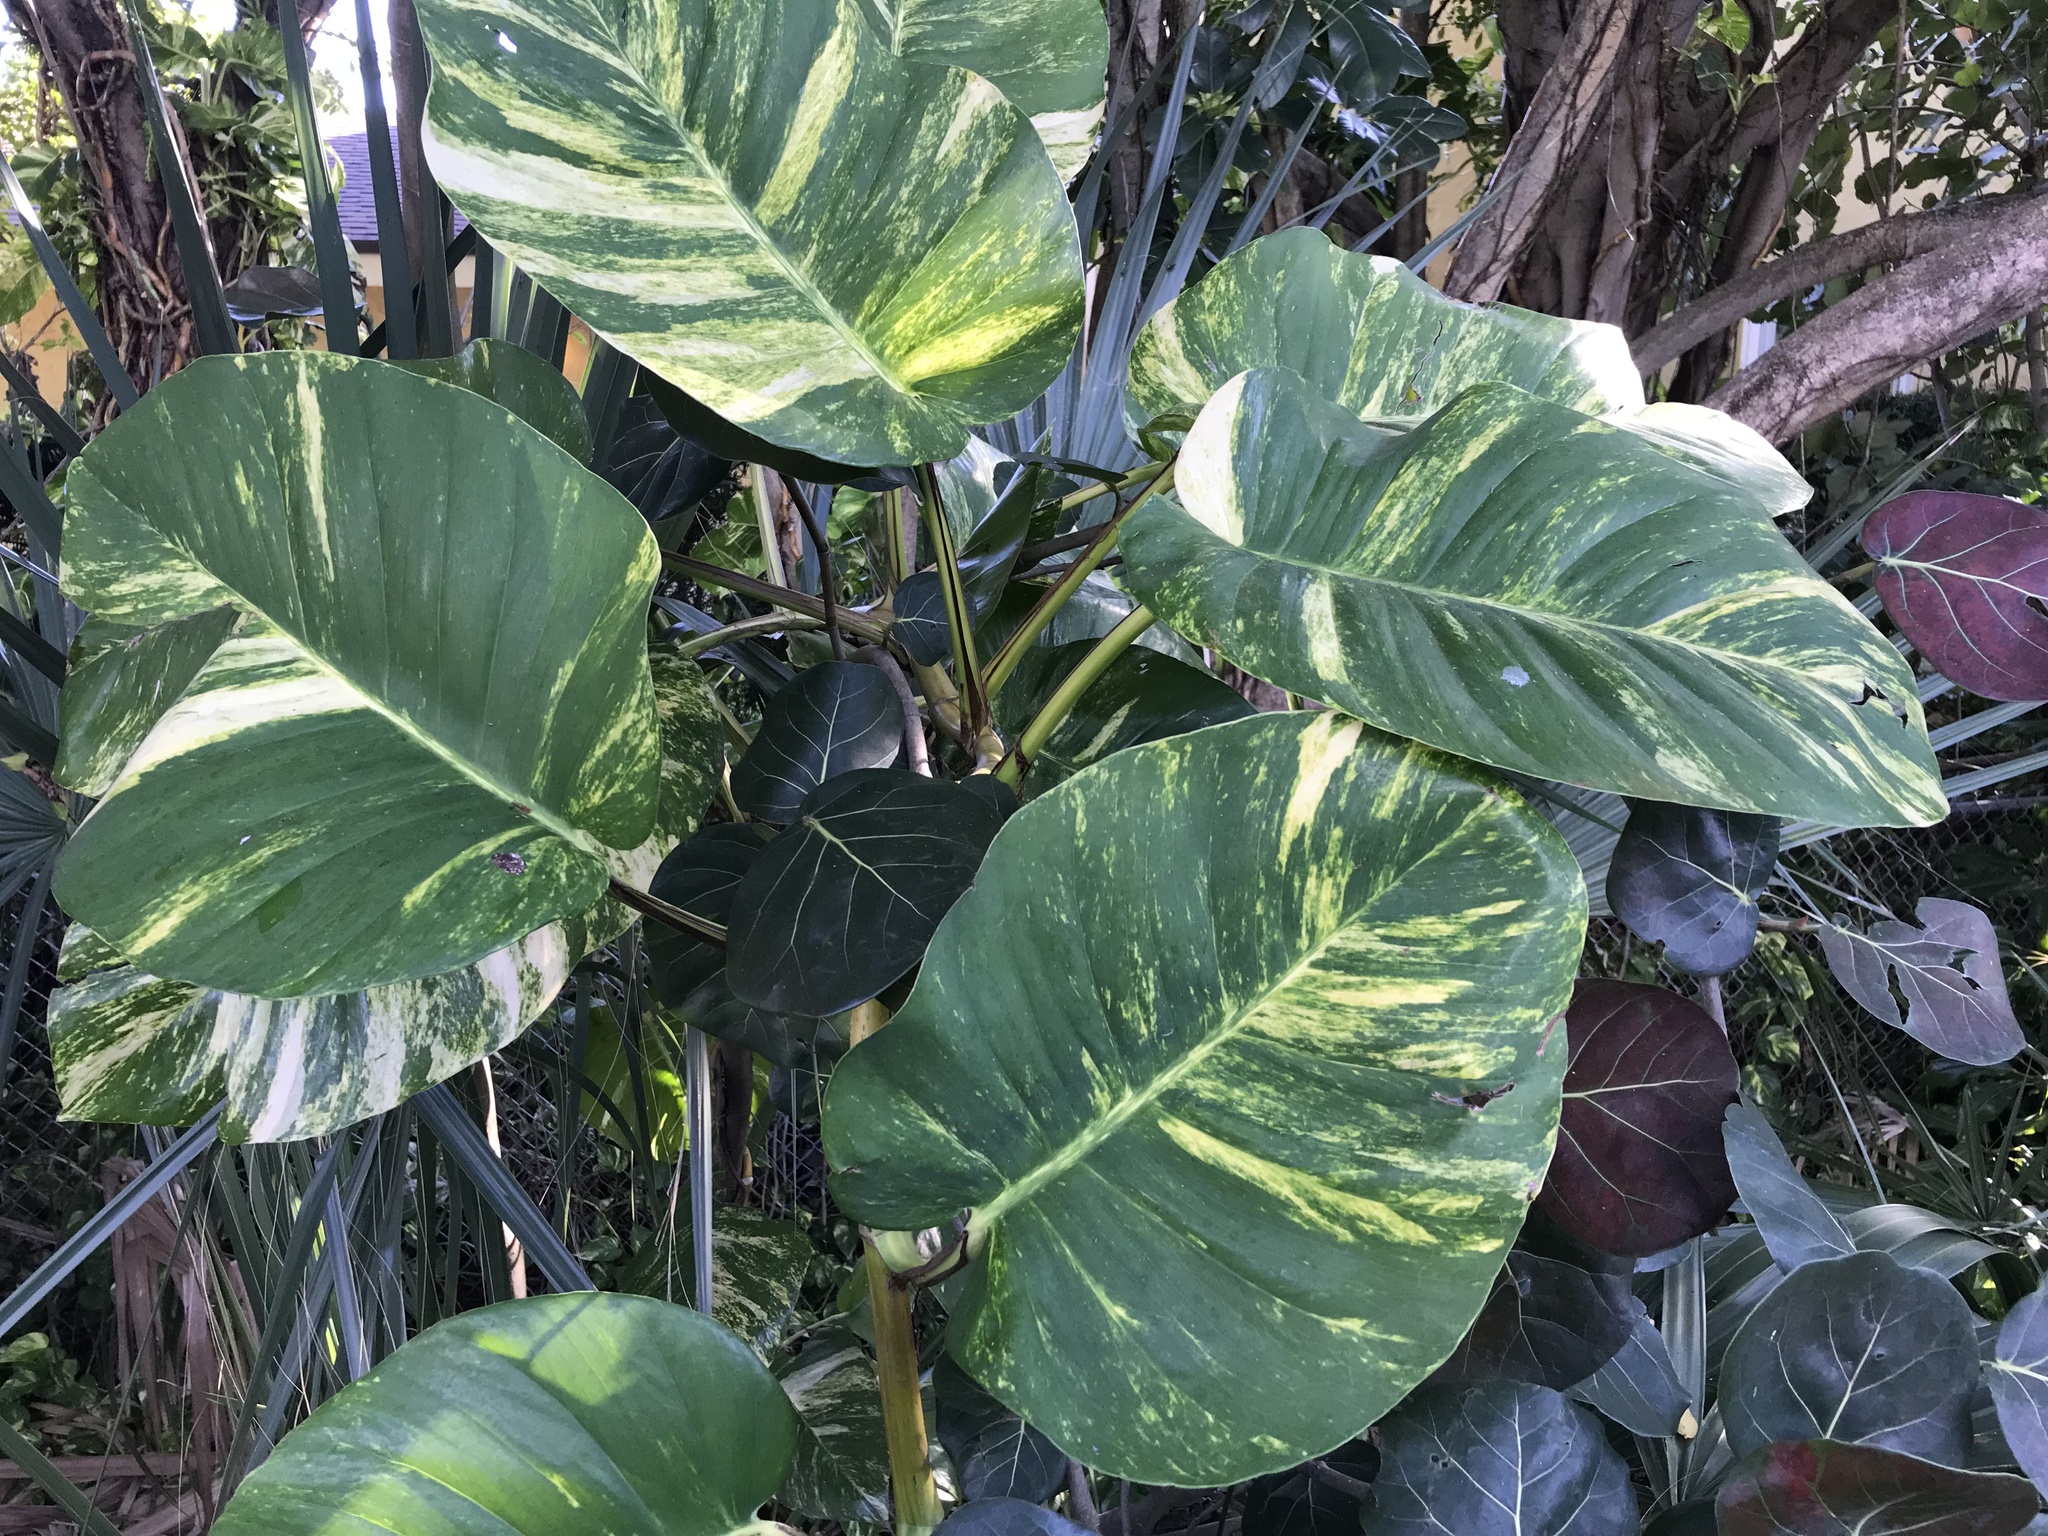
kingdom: Plantae
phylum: Tracheophyta
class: Liliopsida
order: Alismatales
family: Araceae
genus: Epipremnum
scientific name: Epipremnum aureum
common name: Golden hunter's-robe
